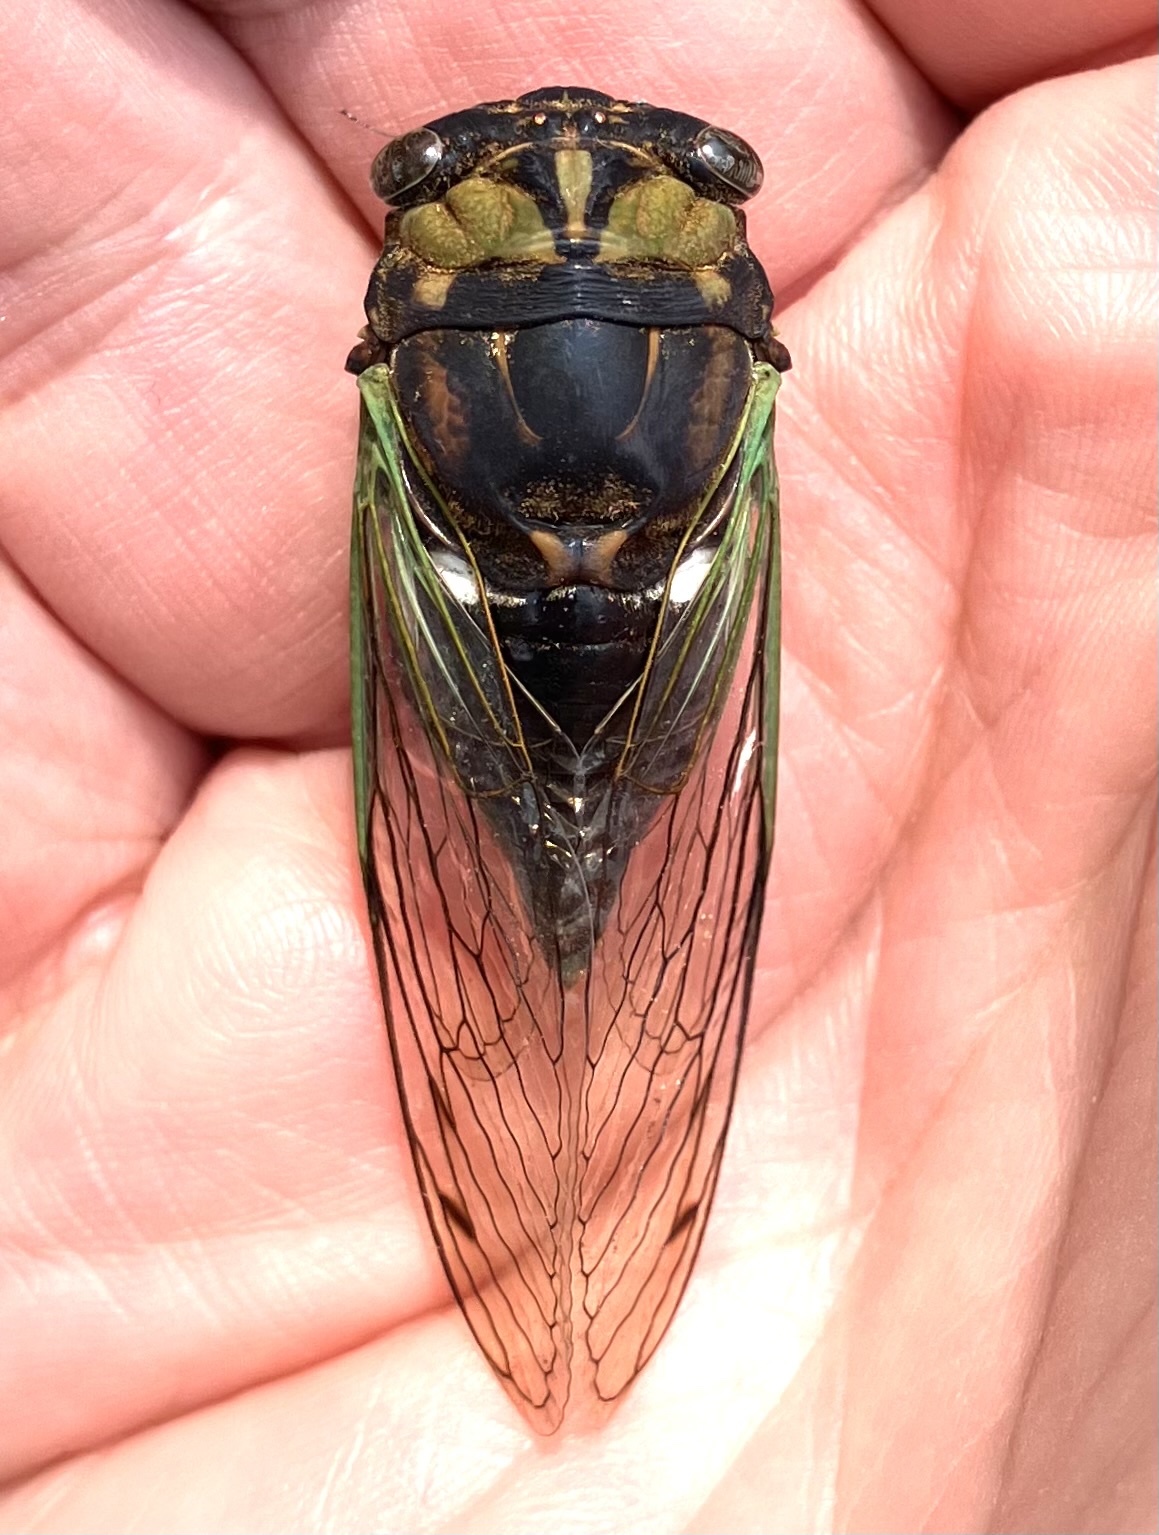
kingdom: Animalia
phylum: Arthropoda
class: Insecta
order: Hemiptera
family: Cicadidae
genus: Neotibicen
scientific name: Neotibicen tibicen
